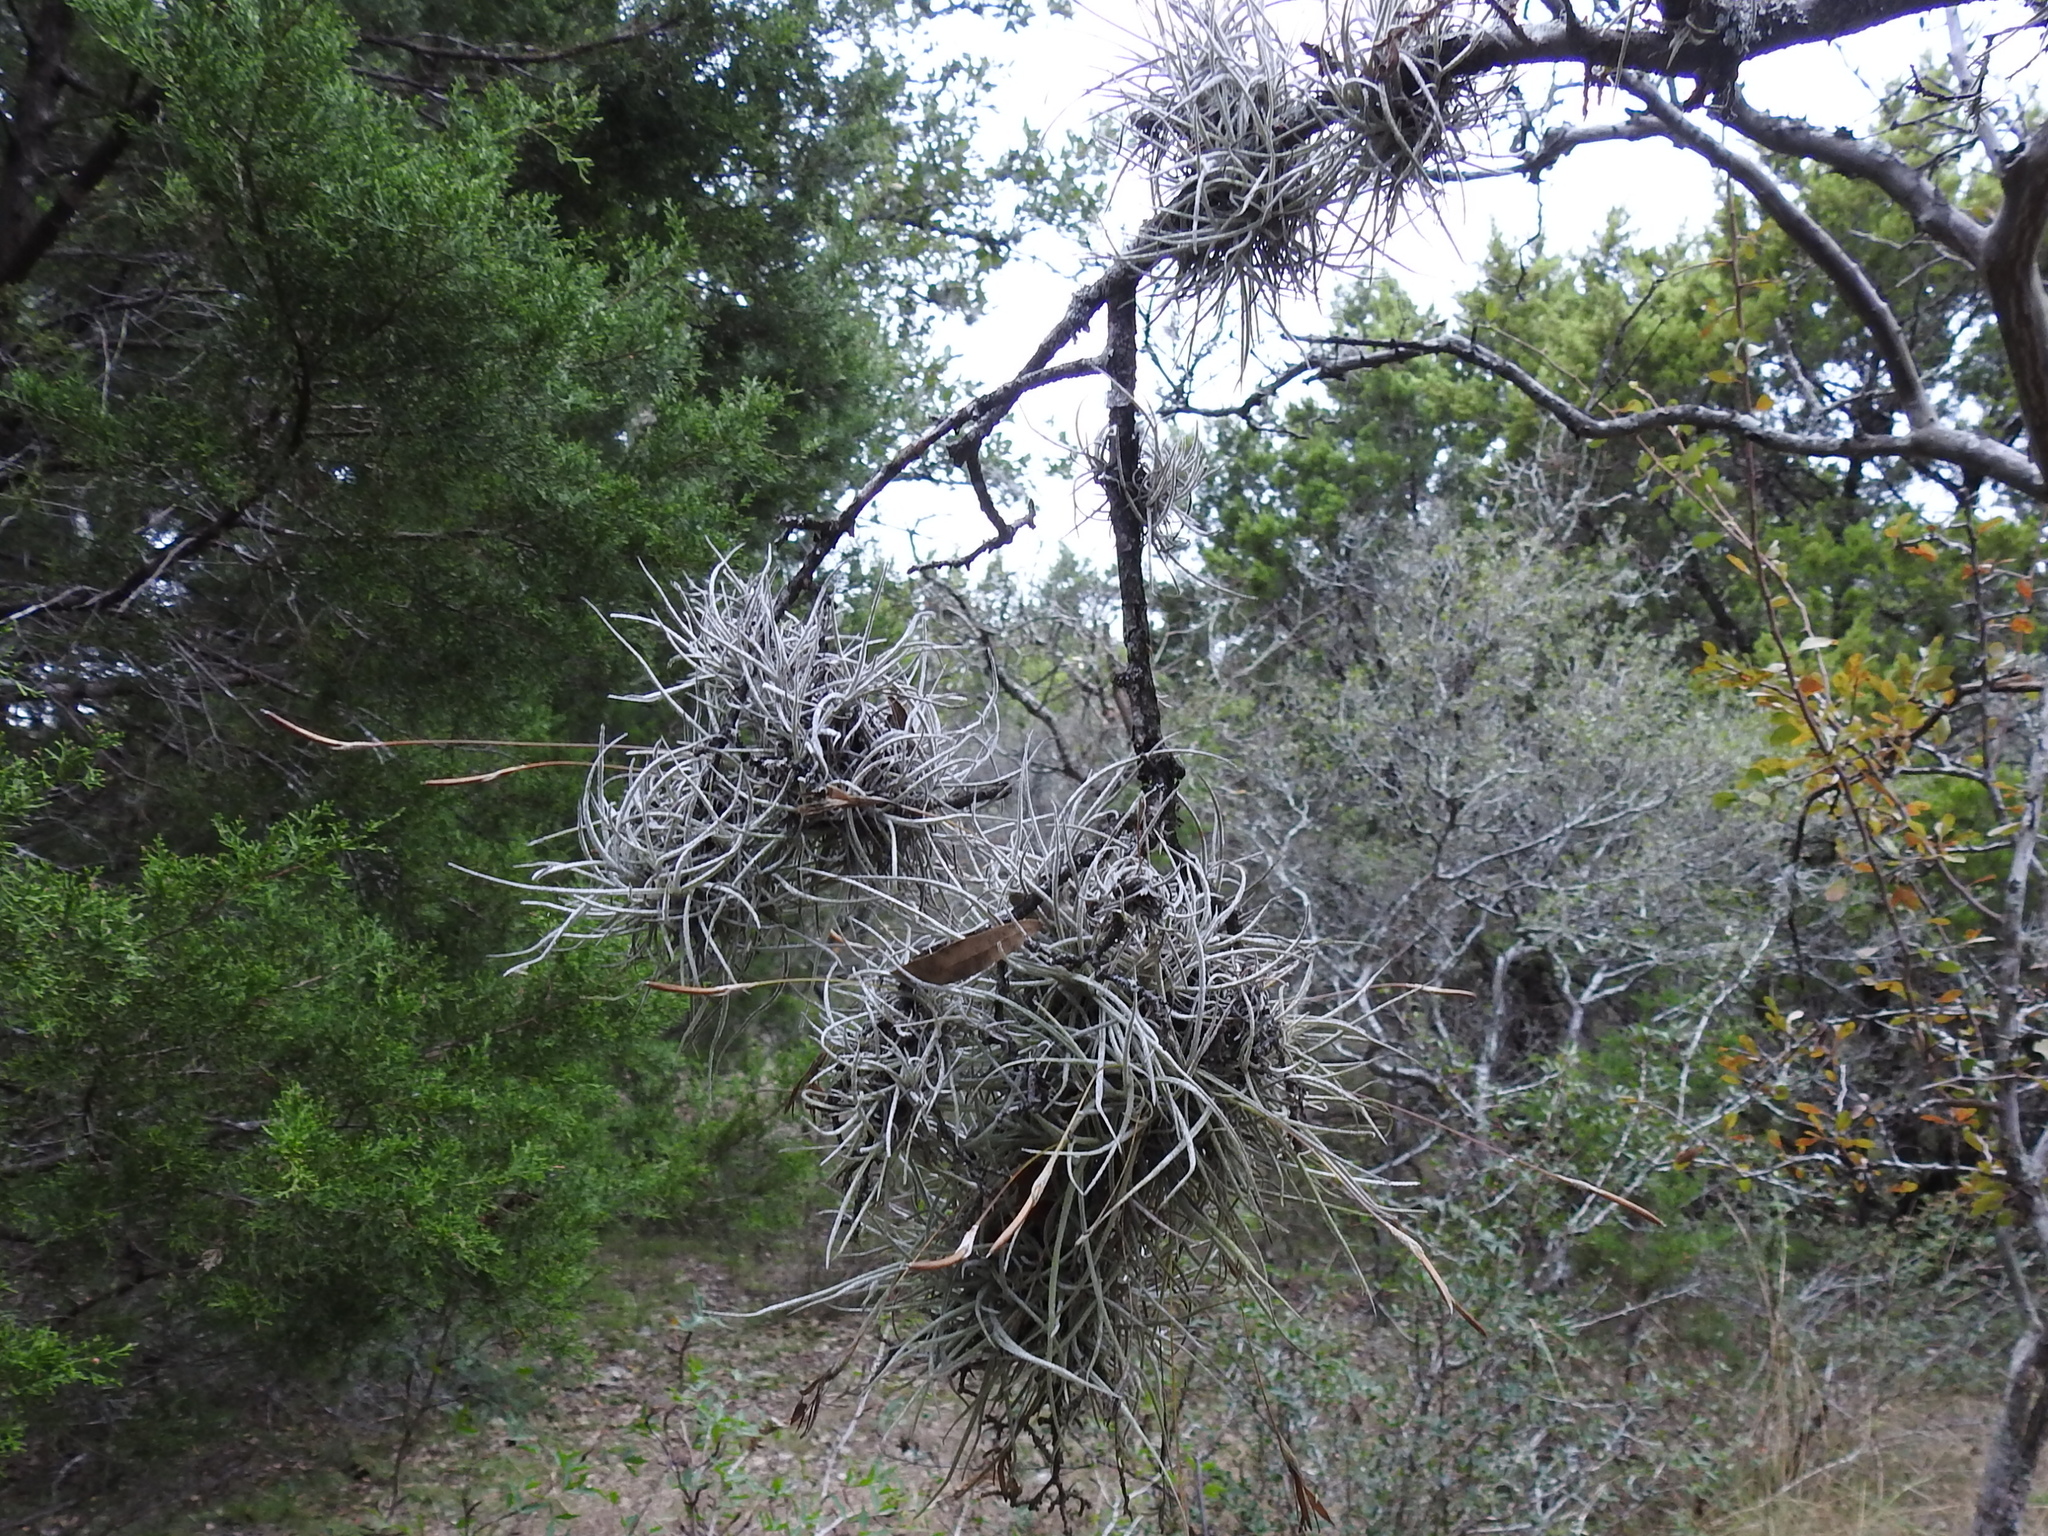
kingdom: Plantae
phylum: Tracheophyta
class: Liliopsida
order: Poales
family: Bromeliaceae
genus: Tillandsia
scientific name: Tillandsia recurvata
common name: Small ballmoss
